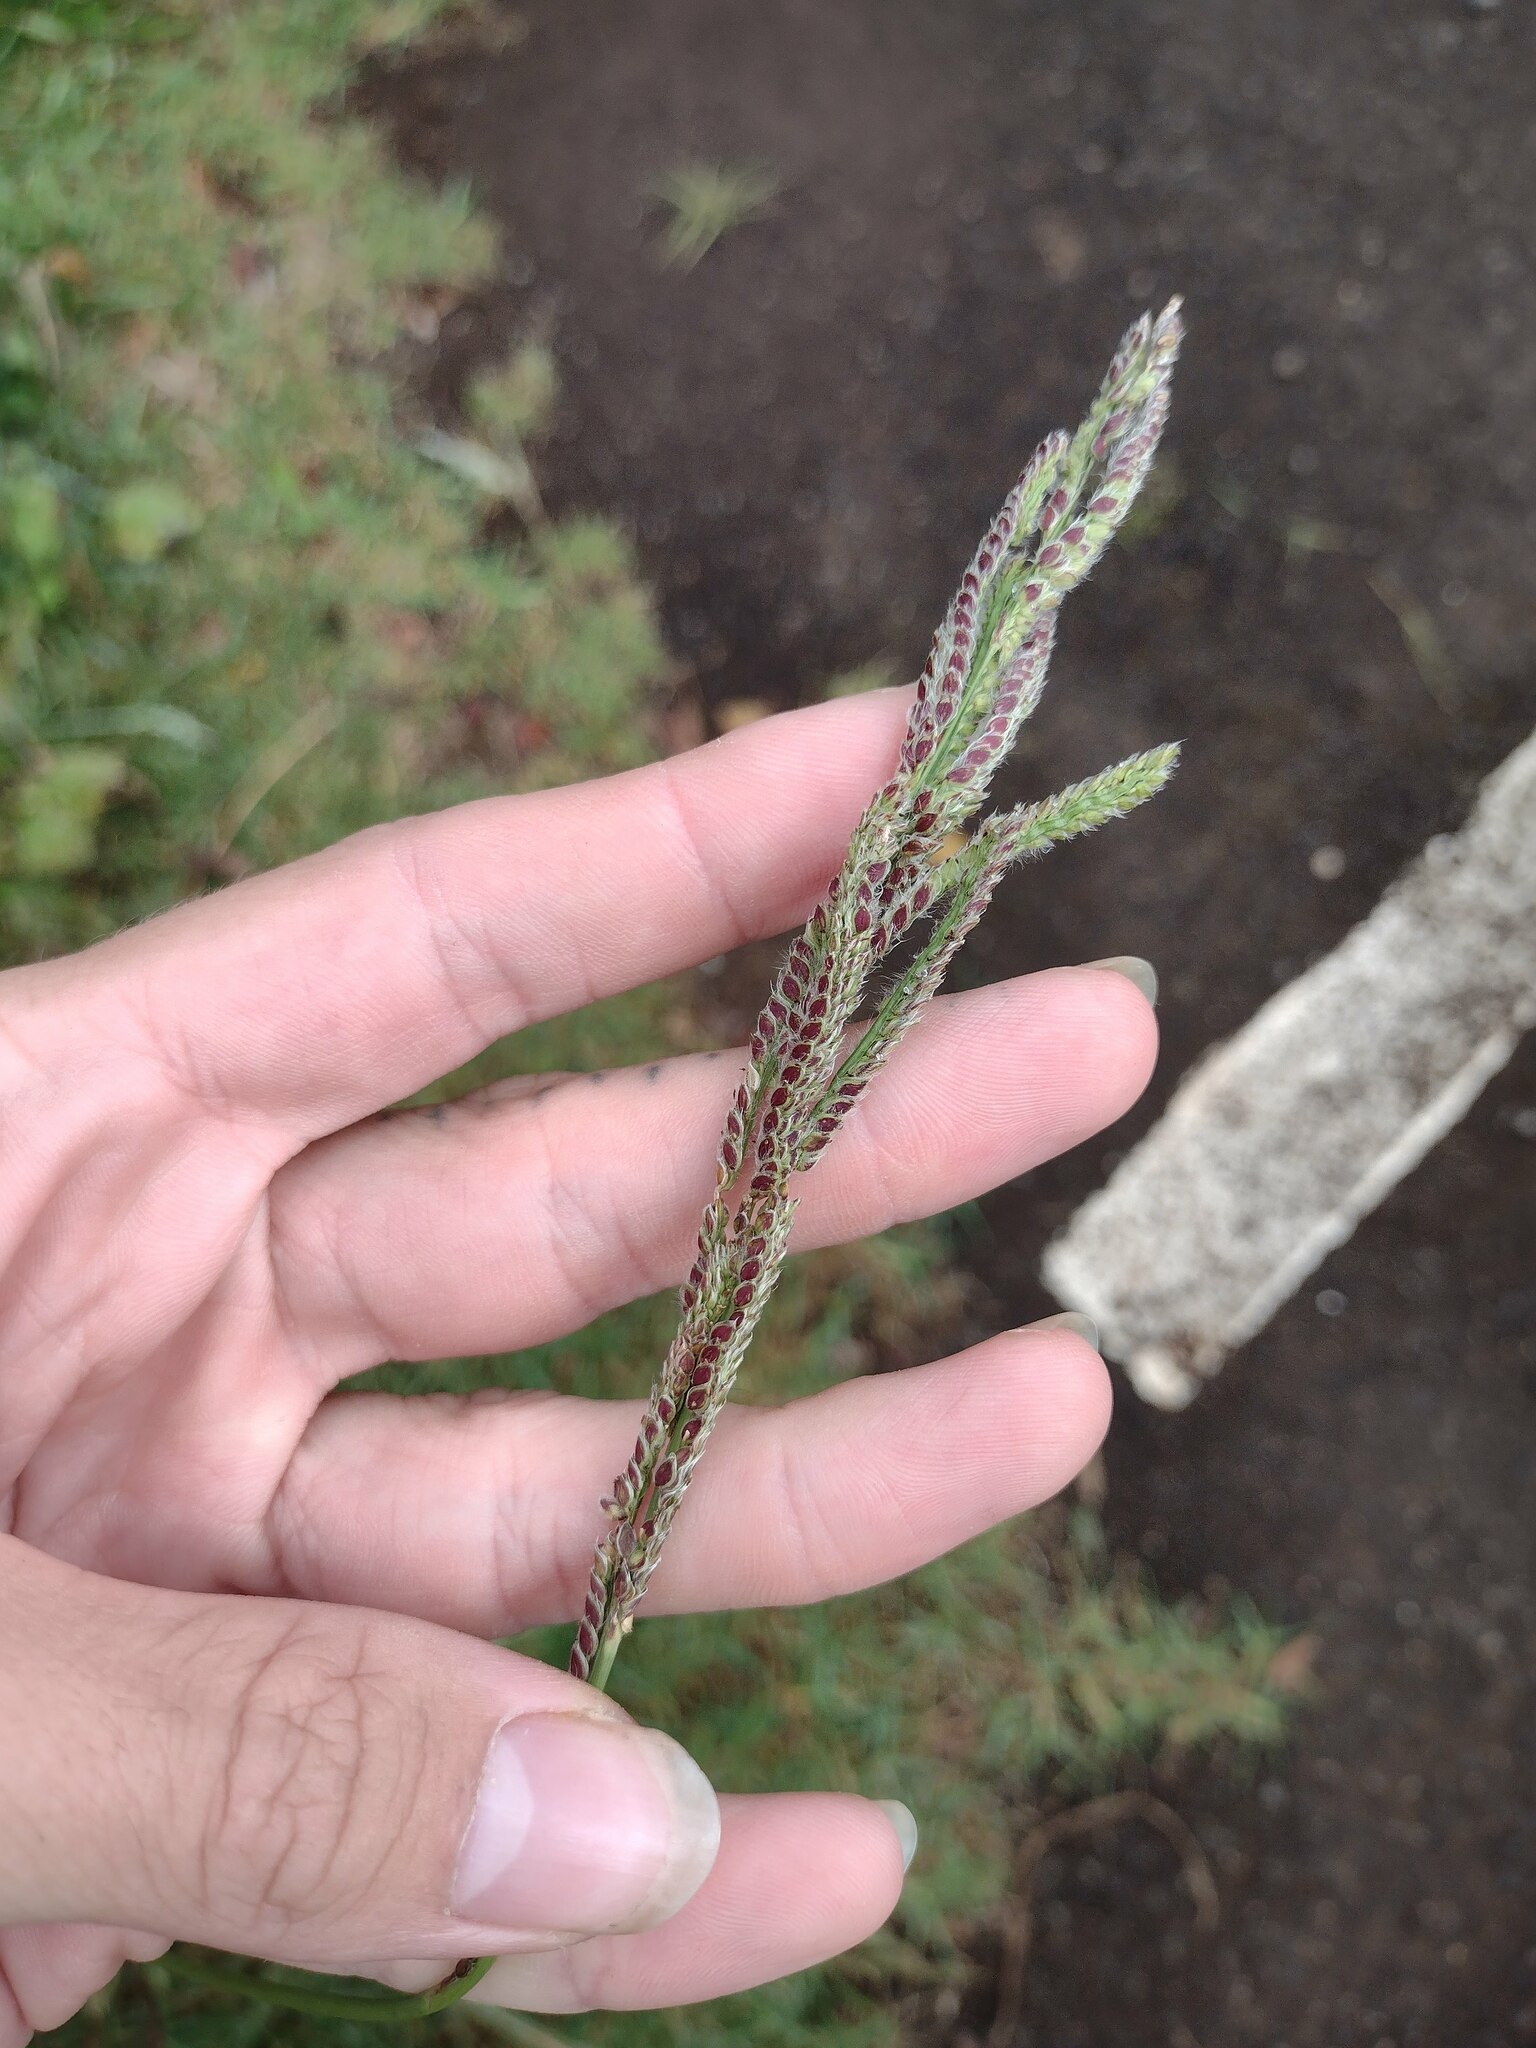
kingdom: Plantae
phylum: Tracheophyta
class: Liliopsida
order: Poales
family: Poaceae
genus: Paspalum
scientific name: Paspalum urvillei
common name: Vasey's grass
